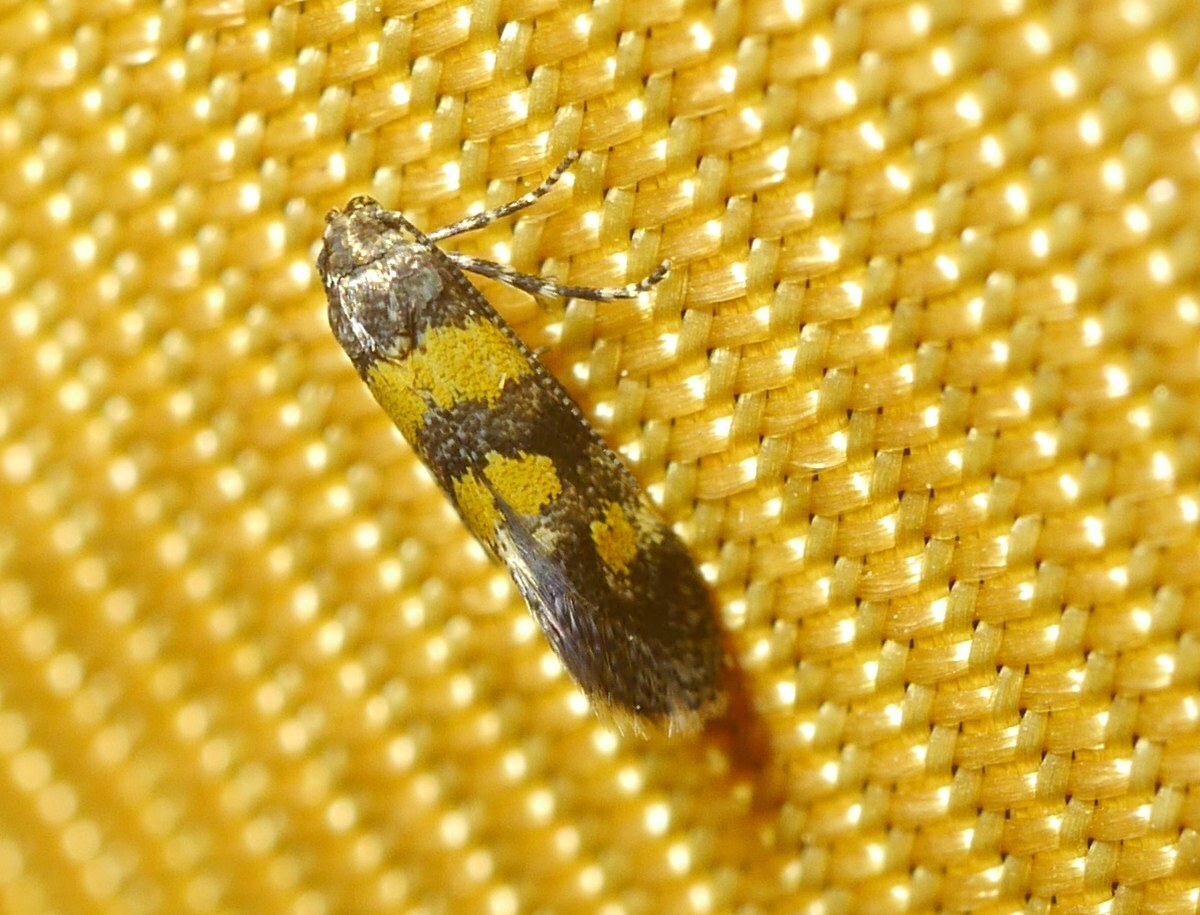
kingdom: Animalia
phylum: Arthropoda
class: Insecta
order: Lepidoptera
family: Gelechiidae
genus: Chrysoesthia
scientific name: Chrysoesthia sexguttella
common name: Moth
